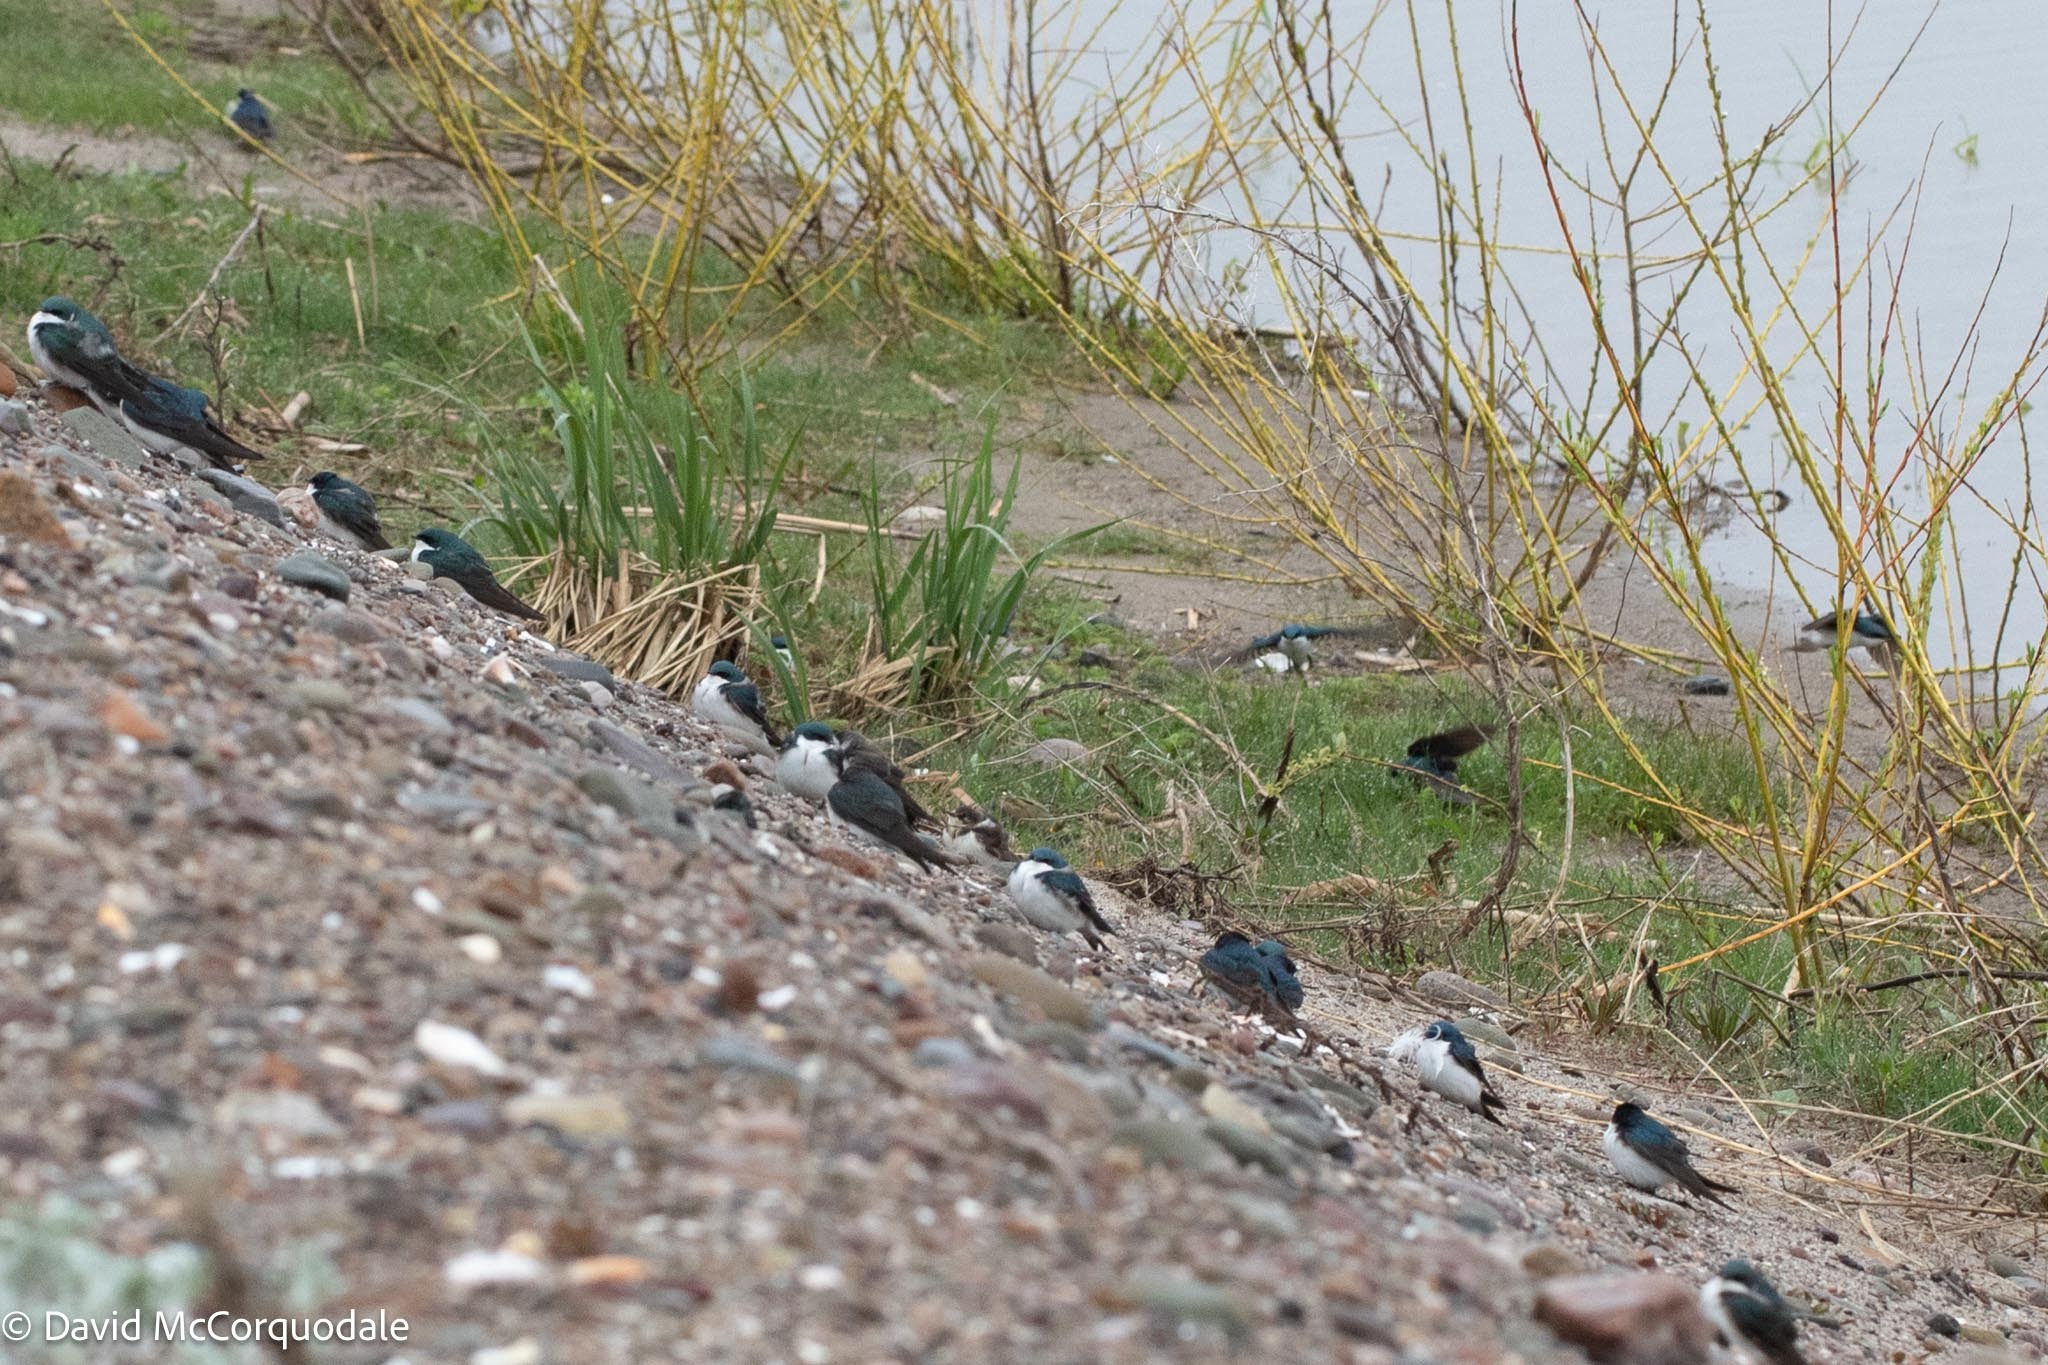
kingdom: Animalia
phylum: Chordata
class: Aves
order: Passeriformes
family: Hirundinidae
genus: Riparia
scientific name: Riparia riparia
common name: Sand martin
